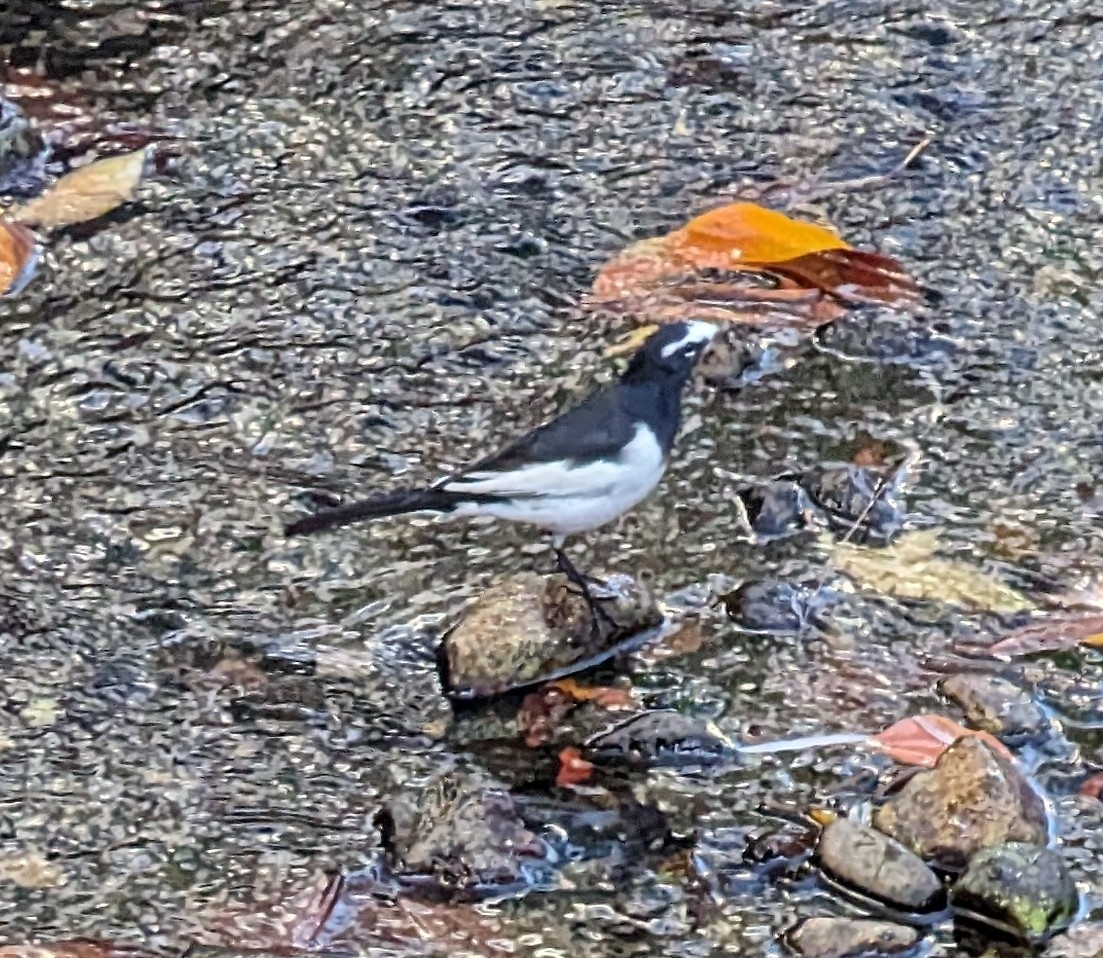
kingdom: Animalia
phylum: Chordata
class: Aves
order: Passeriformes
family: Motacillidae
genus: Motacilla
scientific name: Motacilla grandis
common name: Japanese wagtail
